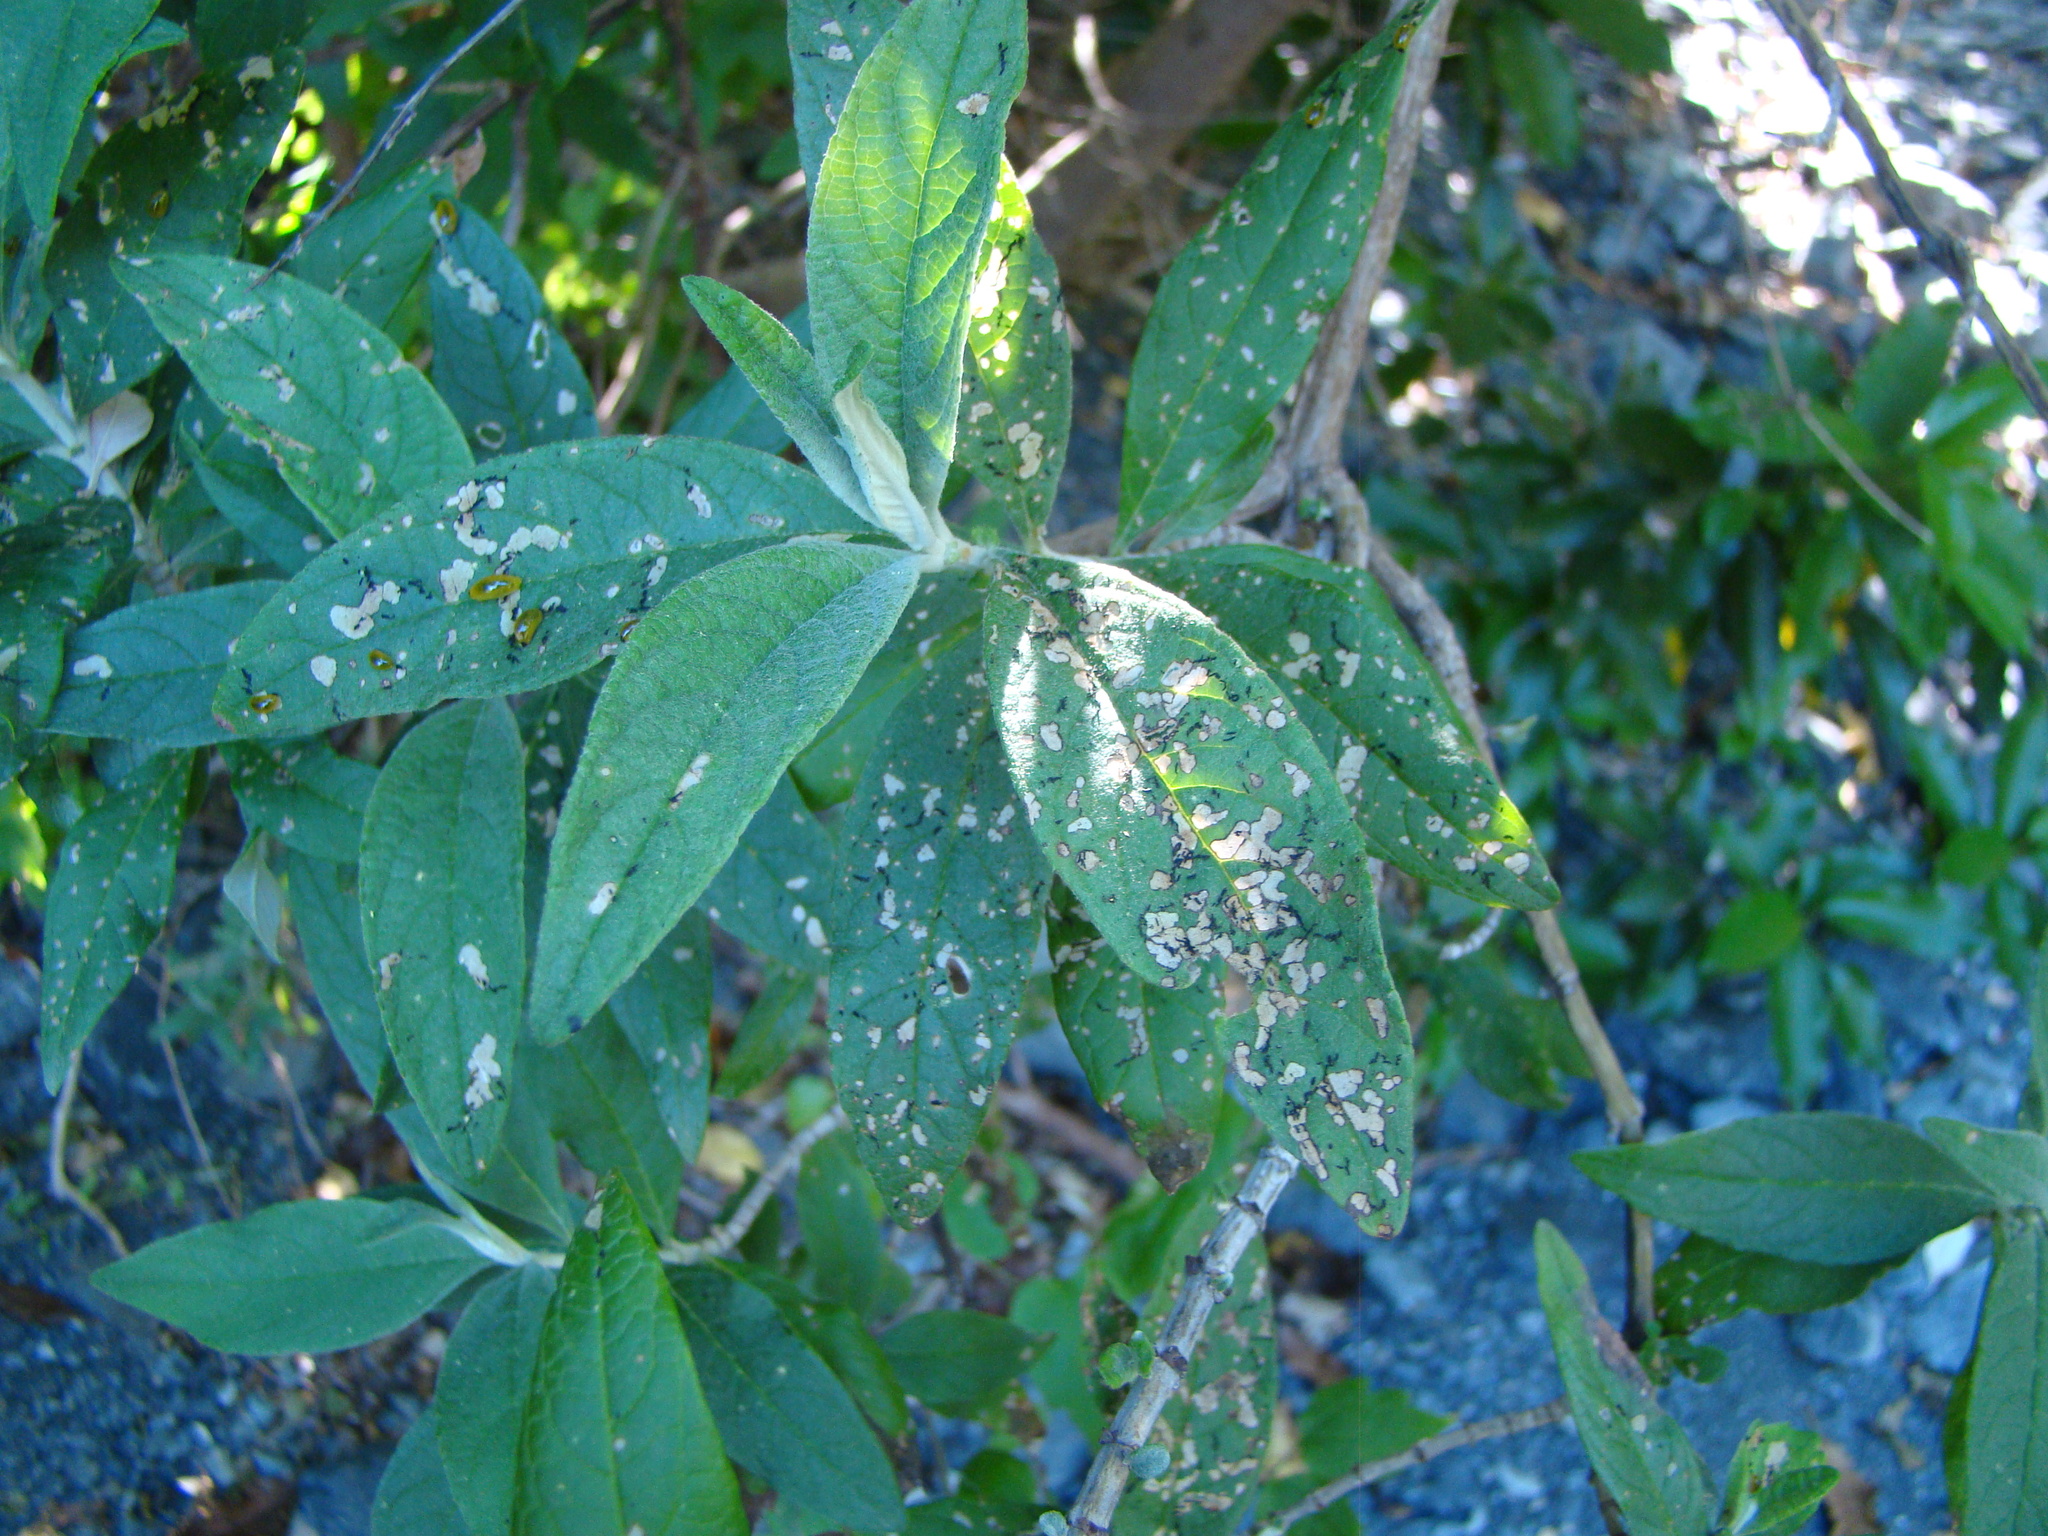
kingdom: Animalia
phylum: Arthropoda
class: Insecta
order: Coleoptera
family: Curculionidae
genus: Cleopus
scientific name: Cleopus japonicus
